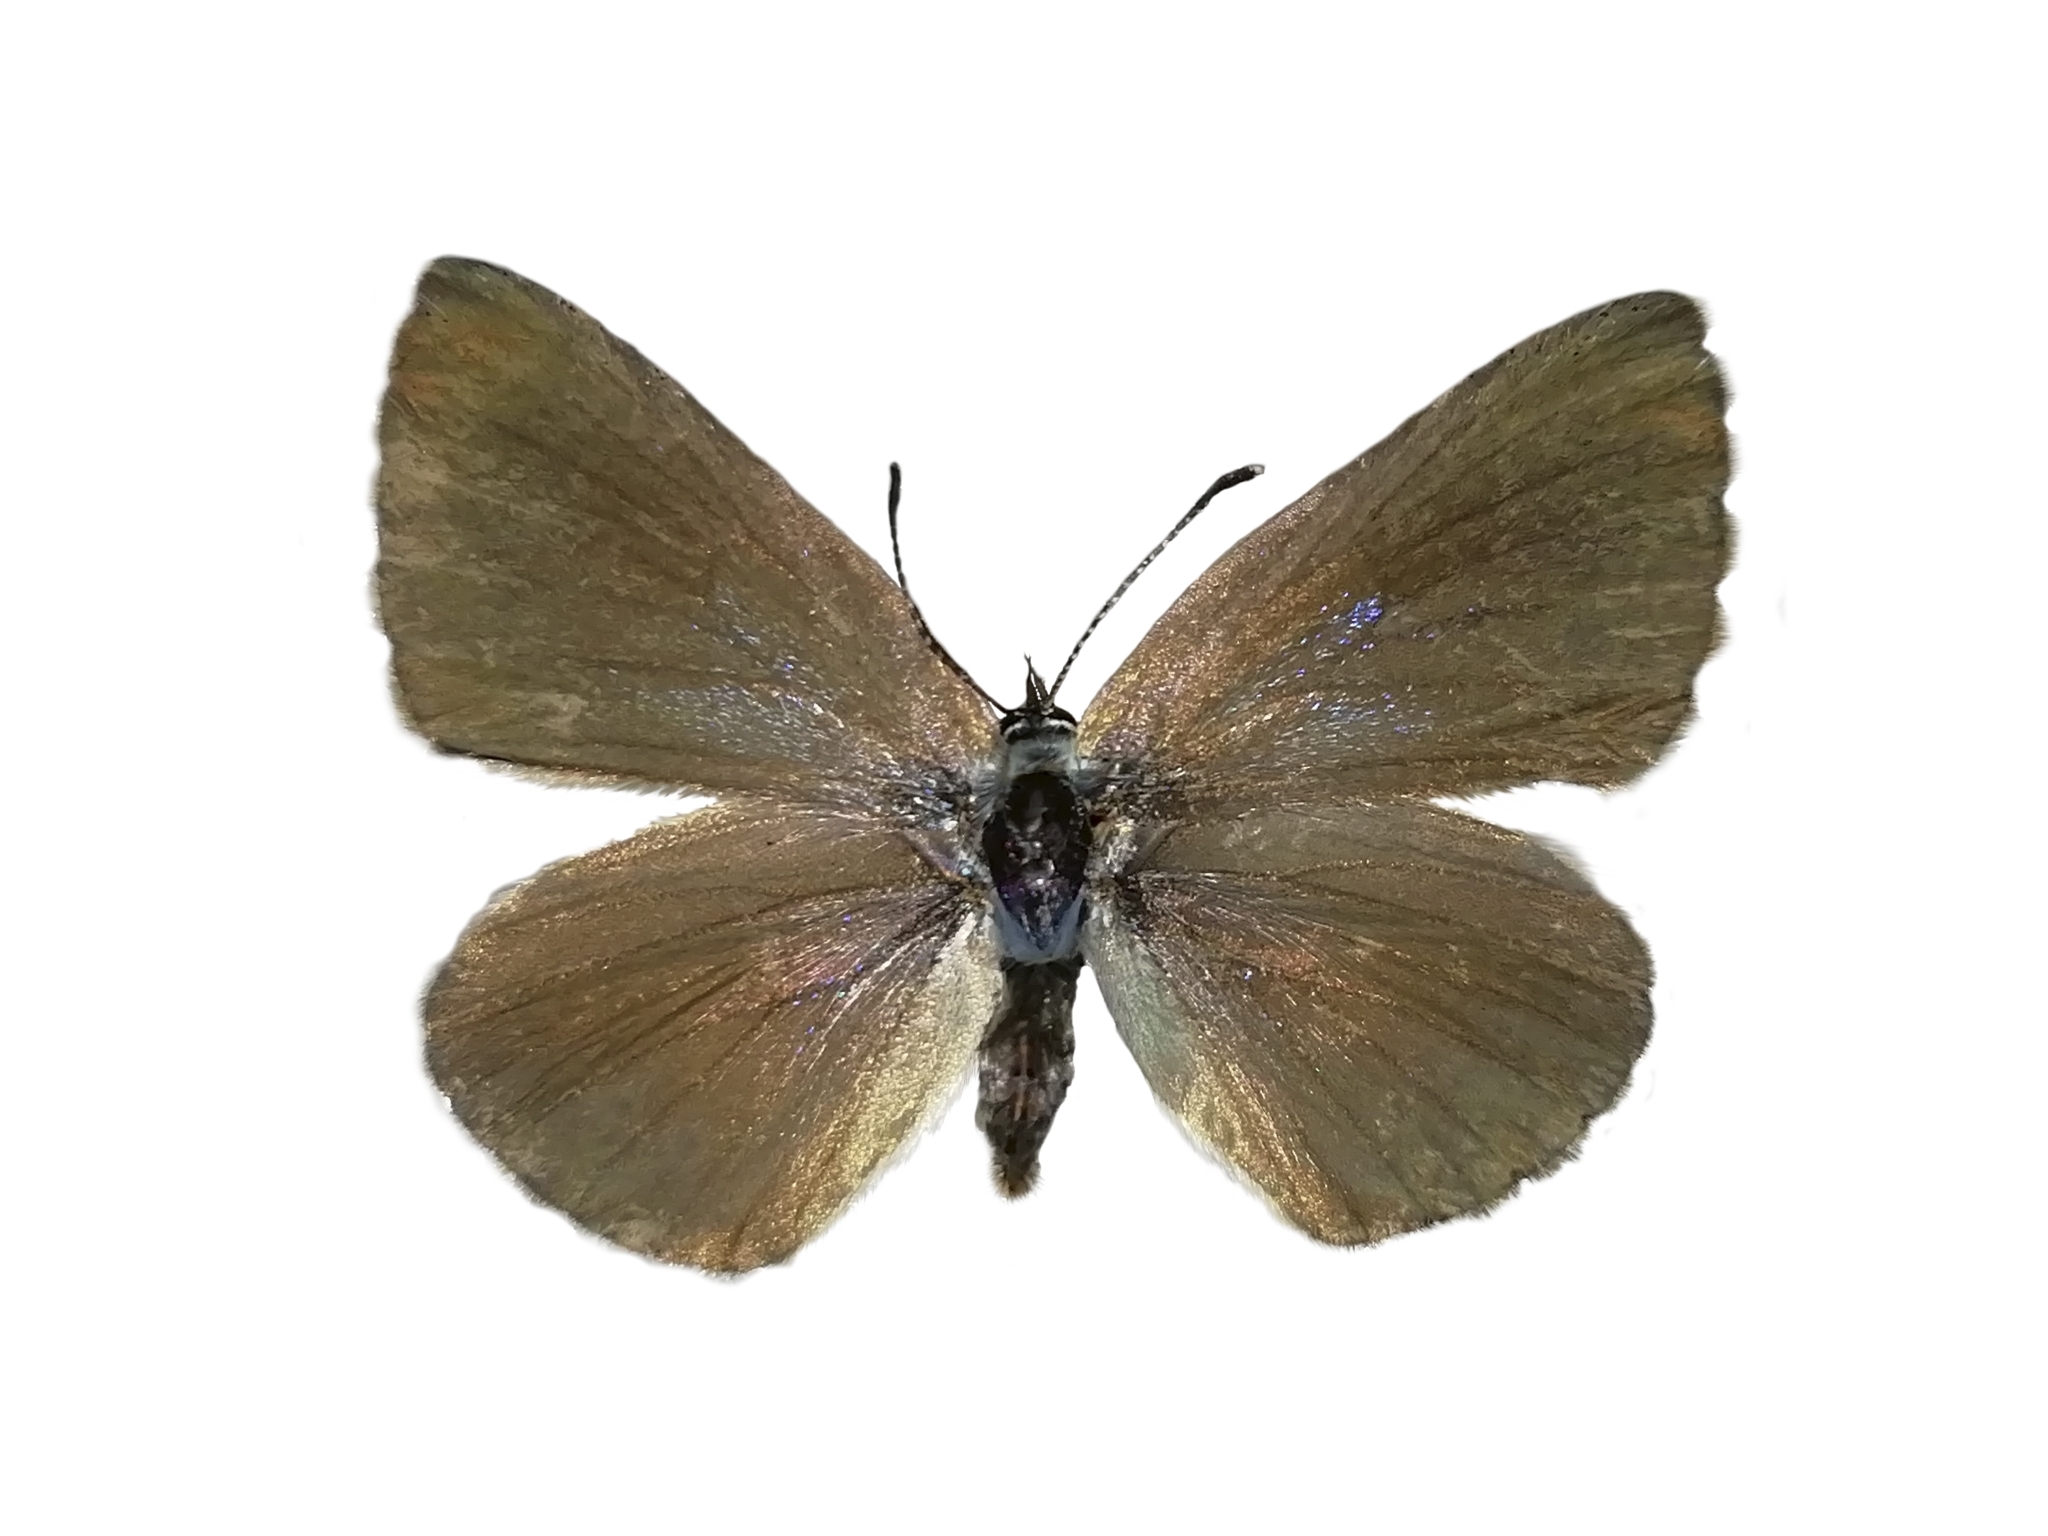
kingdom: Animalia
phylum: Arthropoda
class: Insecta
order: Lepidoptera
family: Lycaenidae
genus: Glaucopsyche
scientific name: Glaucopsyche alexis
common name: Green-underside blue
